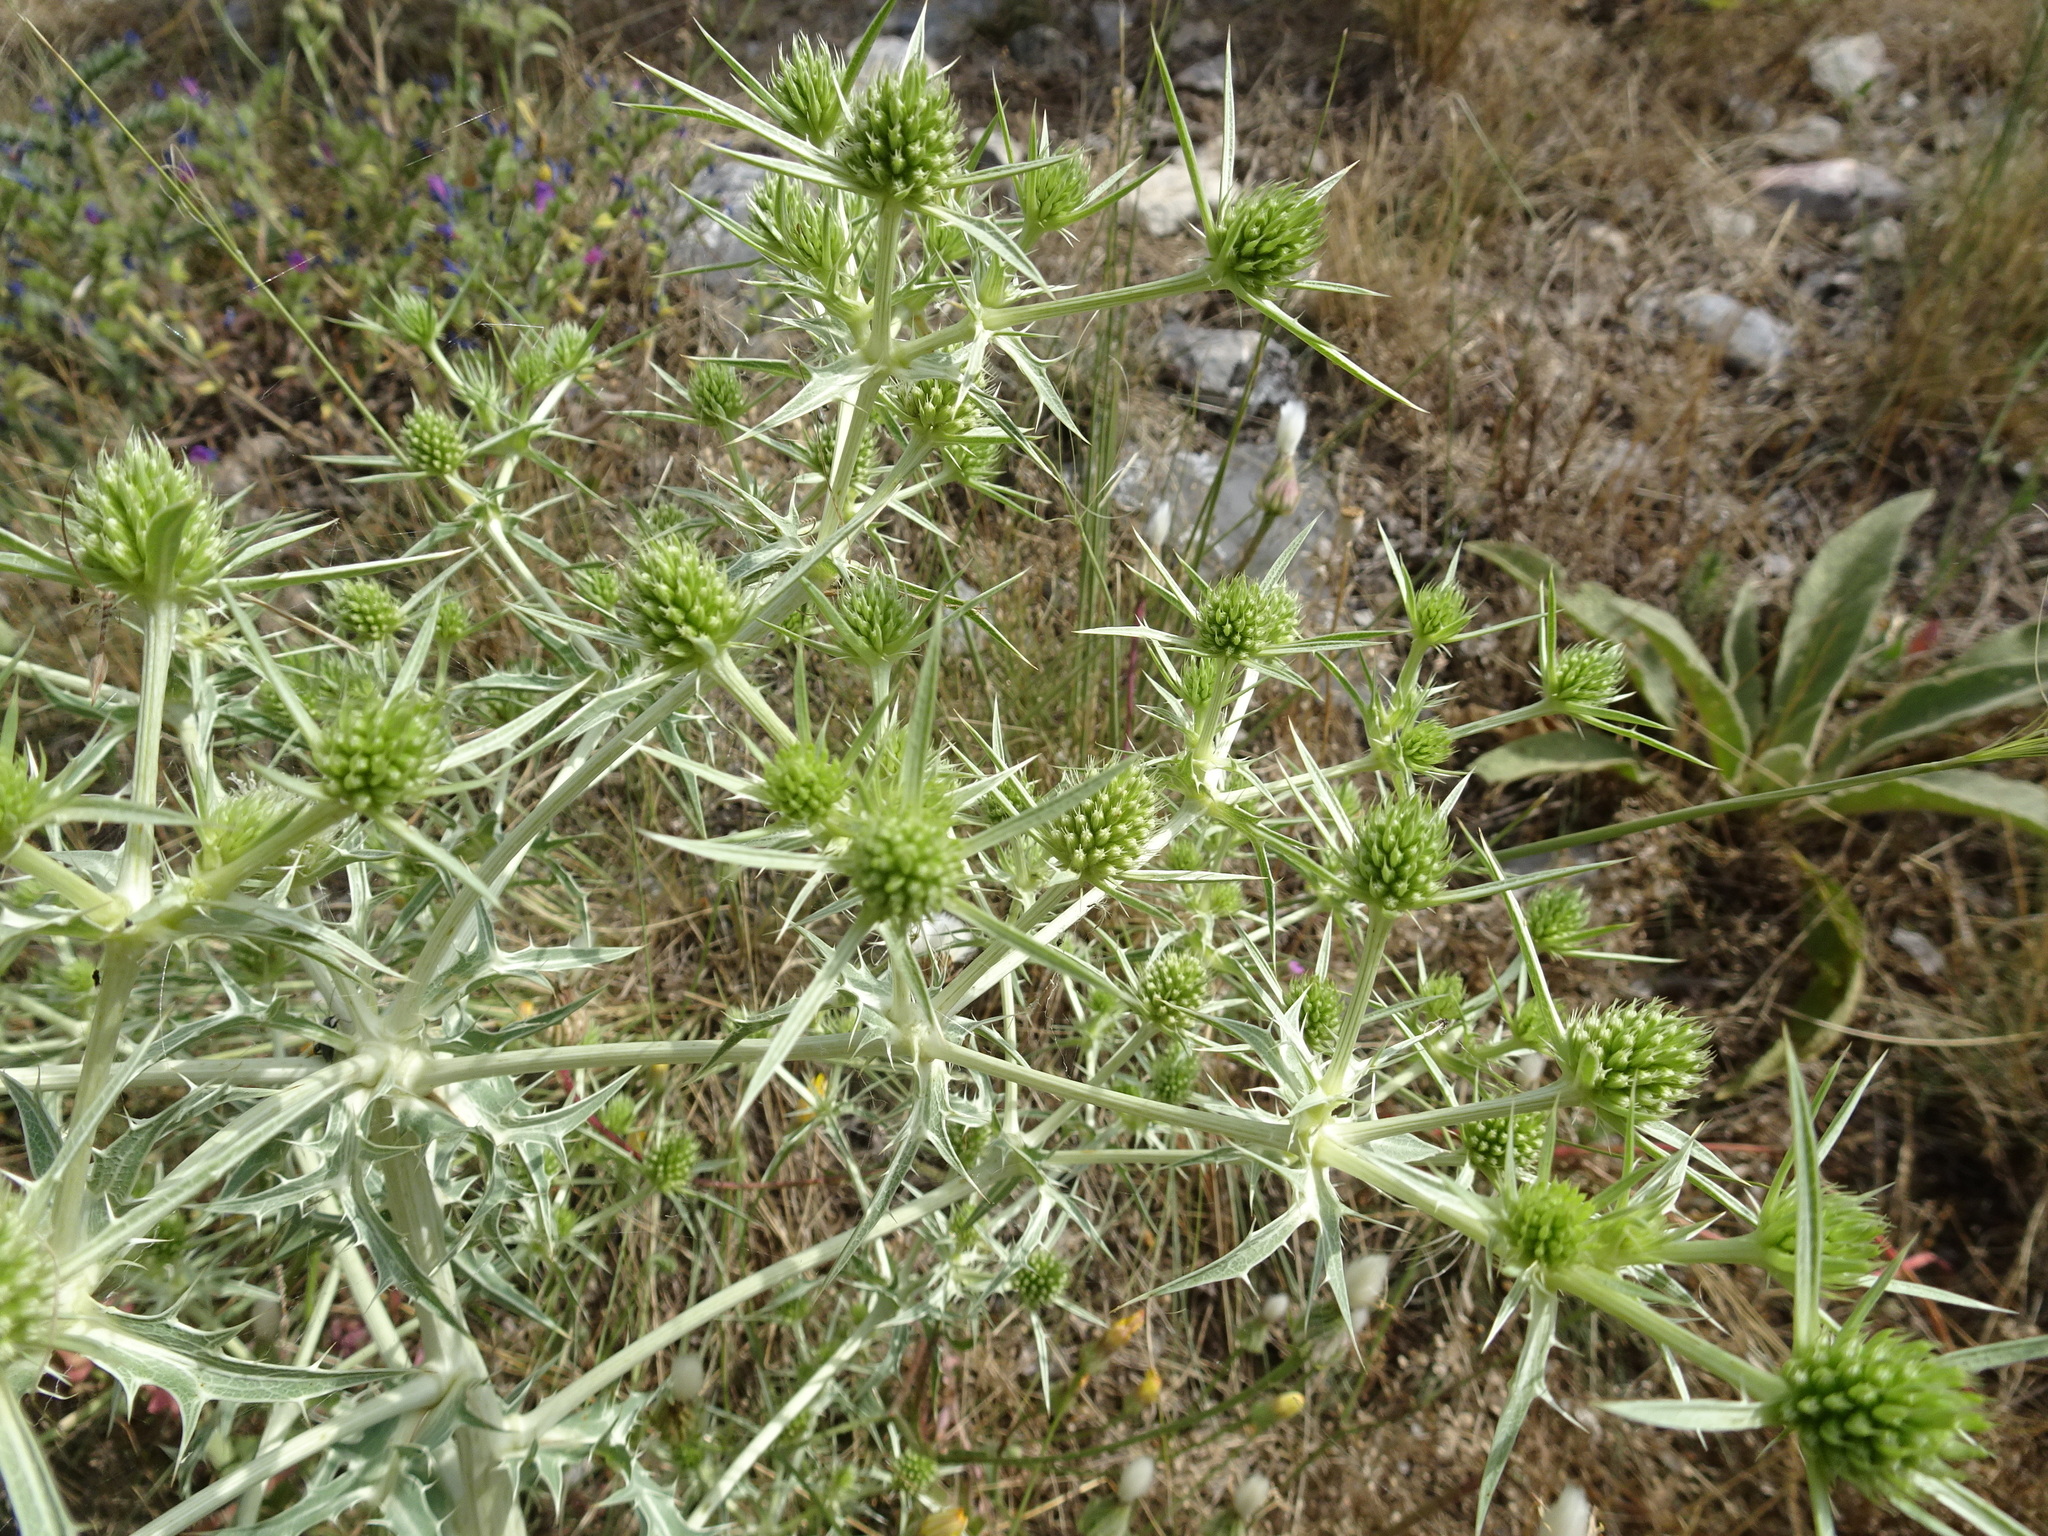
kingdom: Plantae
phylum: Tracheophyta
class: Magnoliopsida
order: Apiales
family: Apiaceae
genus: Eryngium
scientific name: Eryngium campestre
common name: Field eryngo
